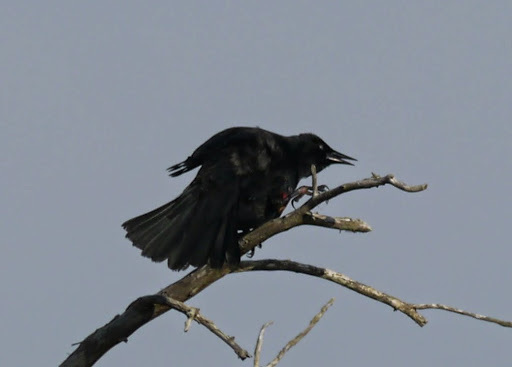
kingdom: Animalia
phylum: Chordata
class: Aves
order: Passeriformes
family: Icteridae
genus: Agelaius
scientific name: Agelaius phoeniceus
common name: Red-winged blackbird
